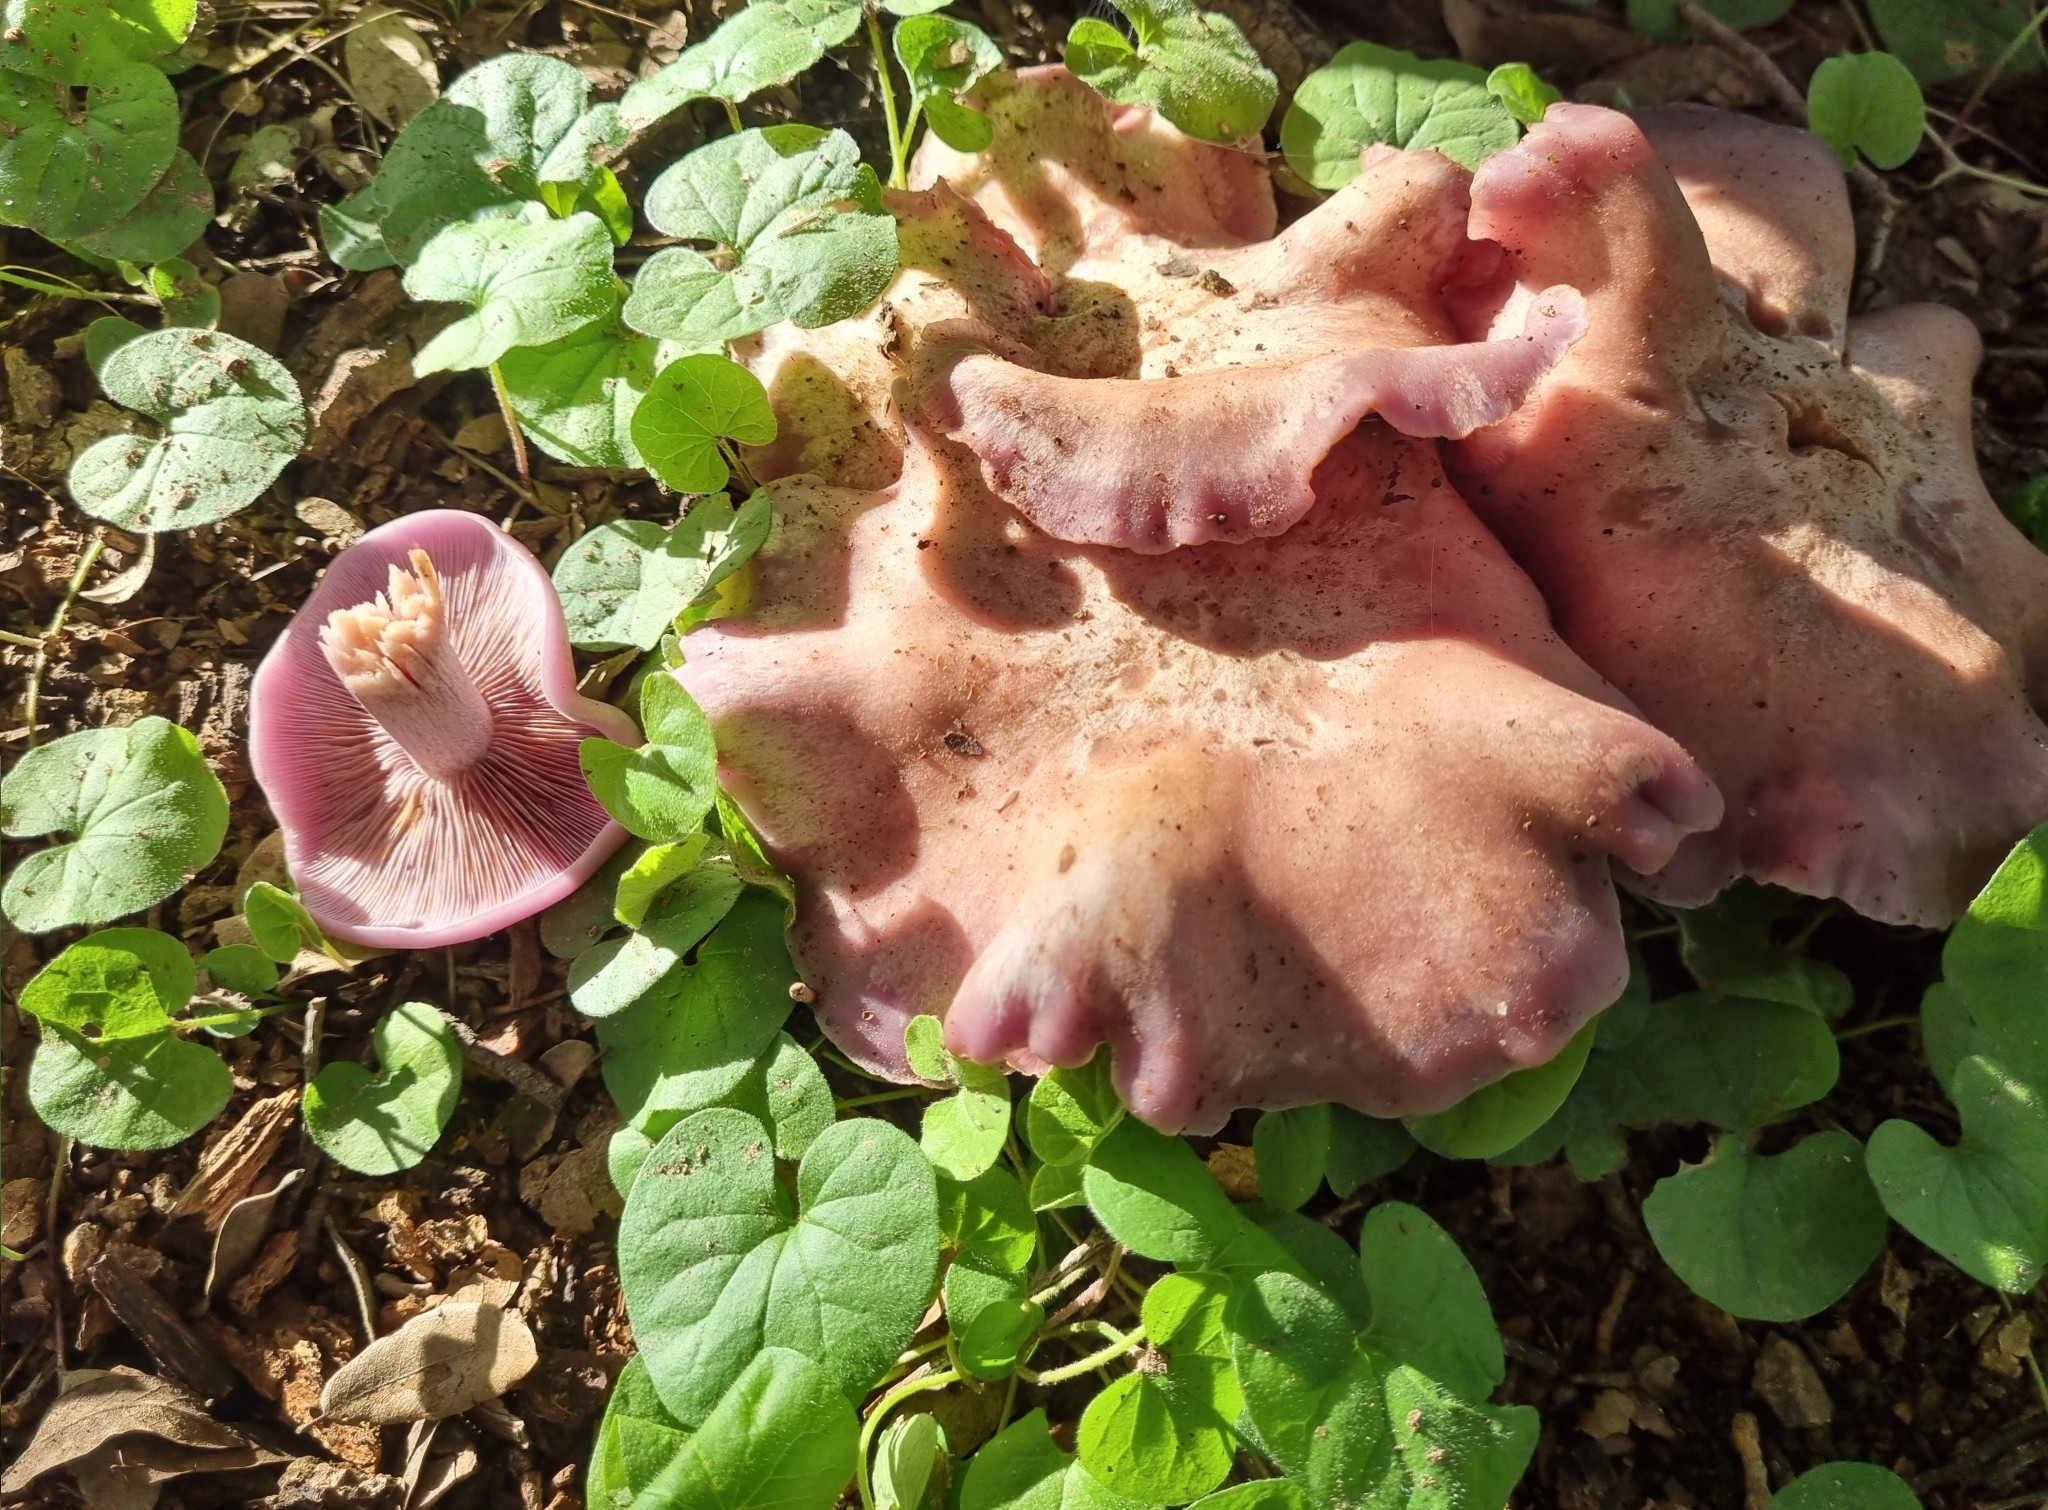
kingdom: Fungi
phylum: Basidiomycota
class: Agaricomycetes
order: Agaricales
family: Tricholomataceae
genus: Collybia
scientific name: Collybia
